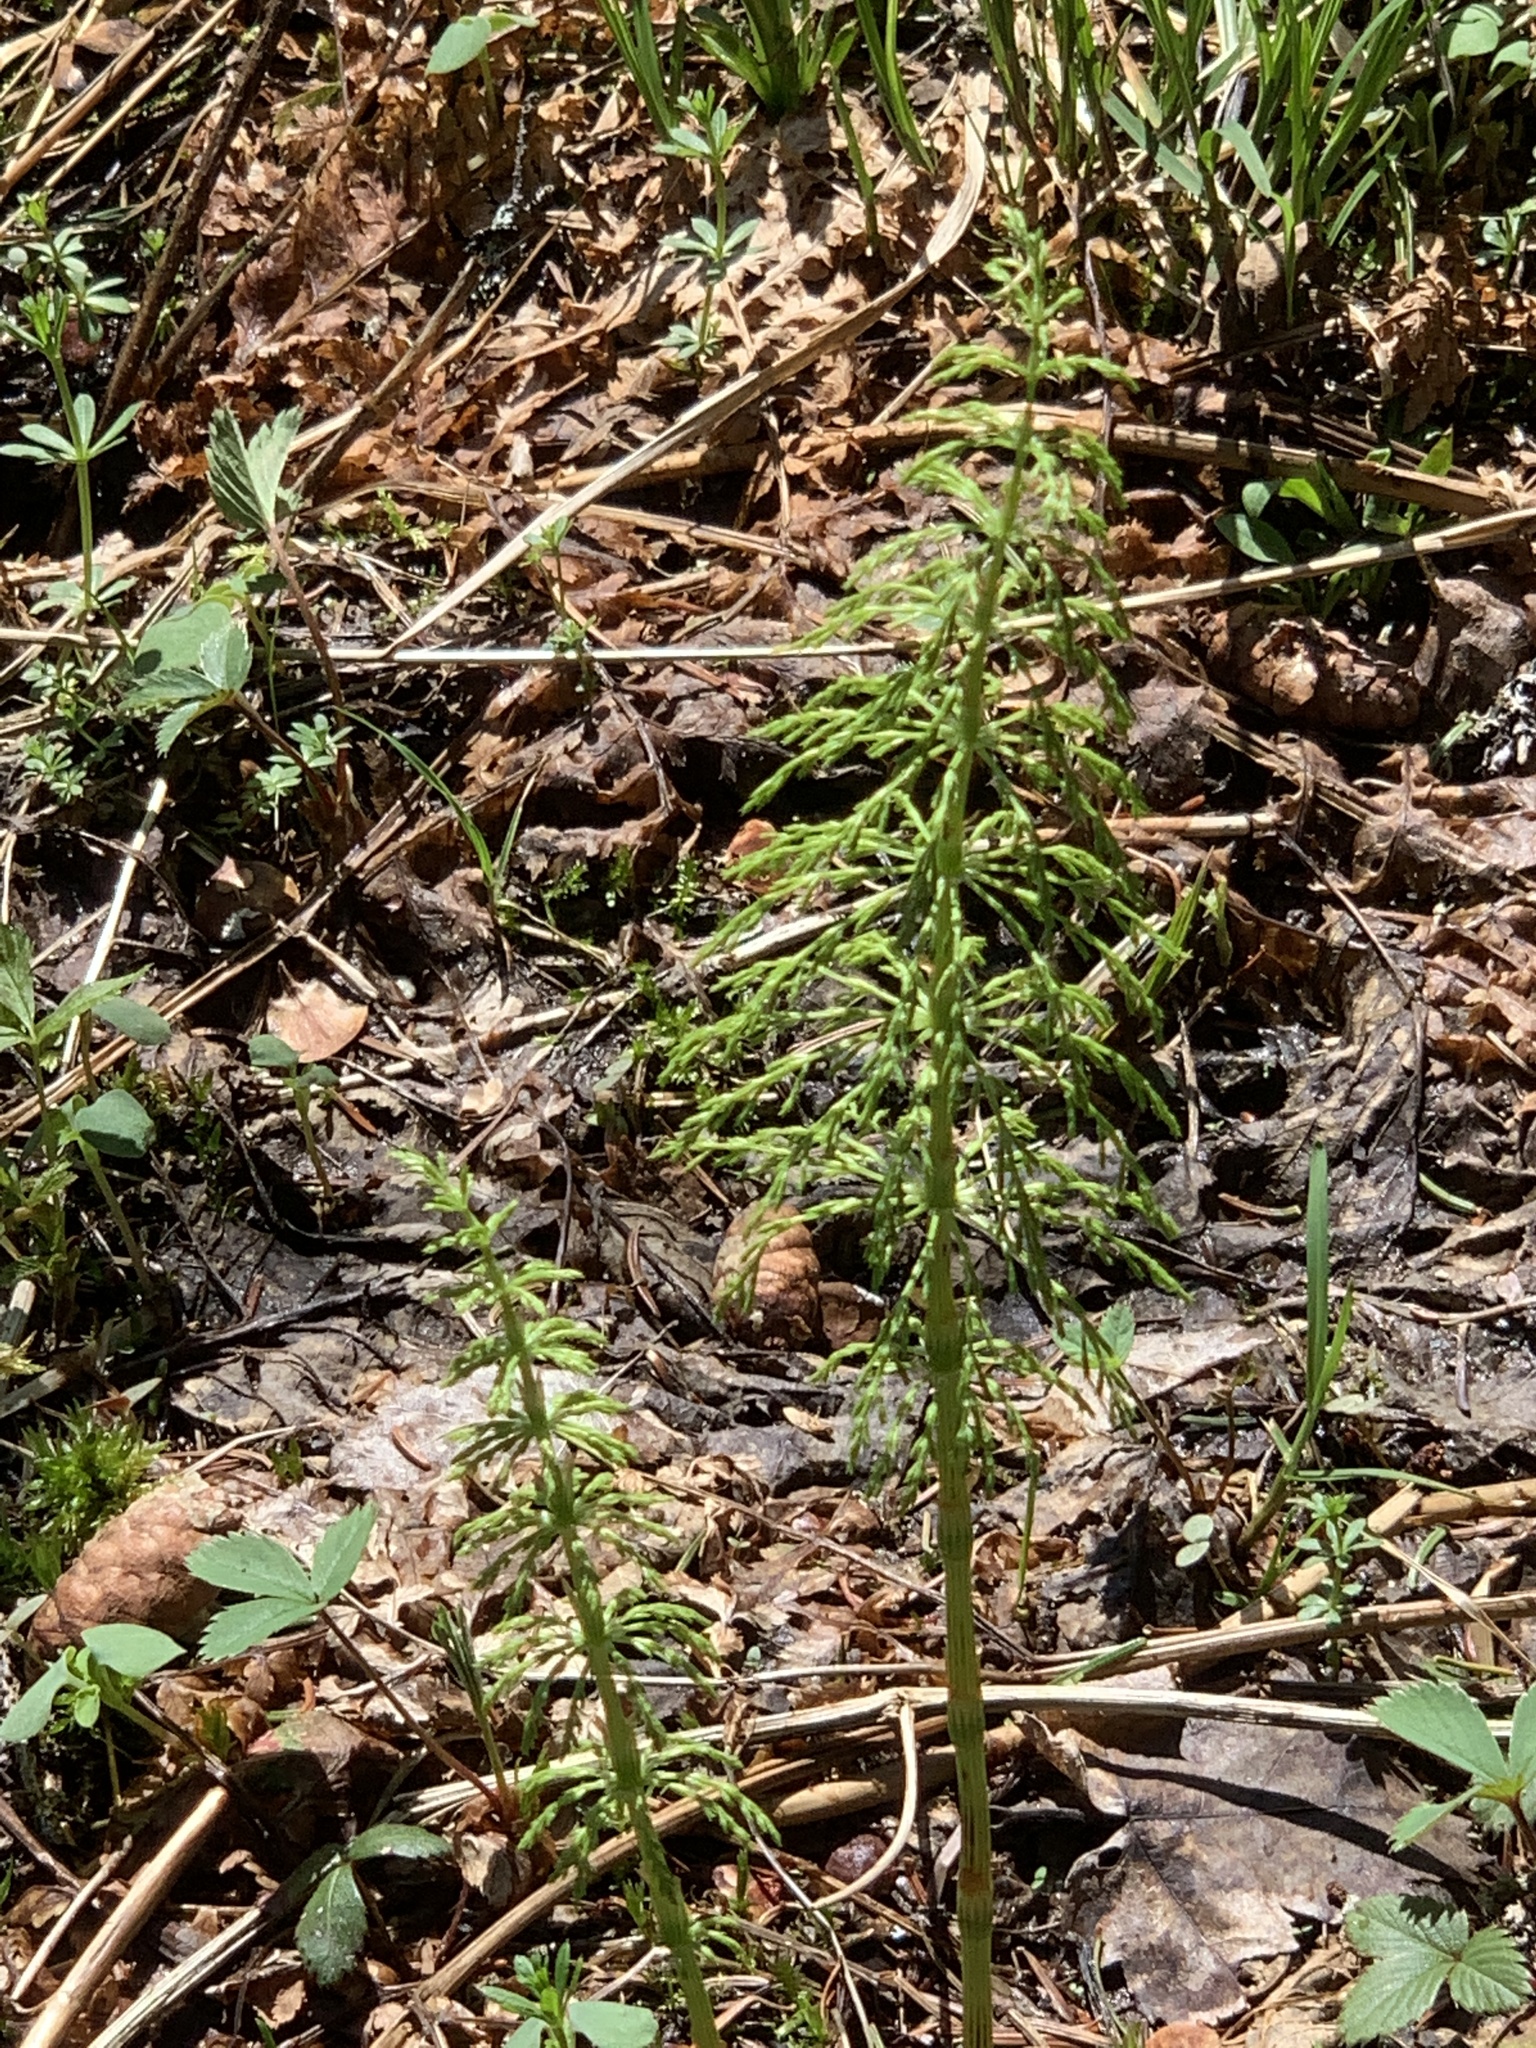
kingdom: Plantae
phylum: Tracheophyta
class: Polypodiopsida
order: Equisetales
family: Equisetaceae
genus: Equisetum
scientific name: Equisetum sylvaticum
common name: Wood horsetail
